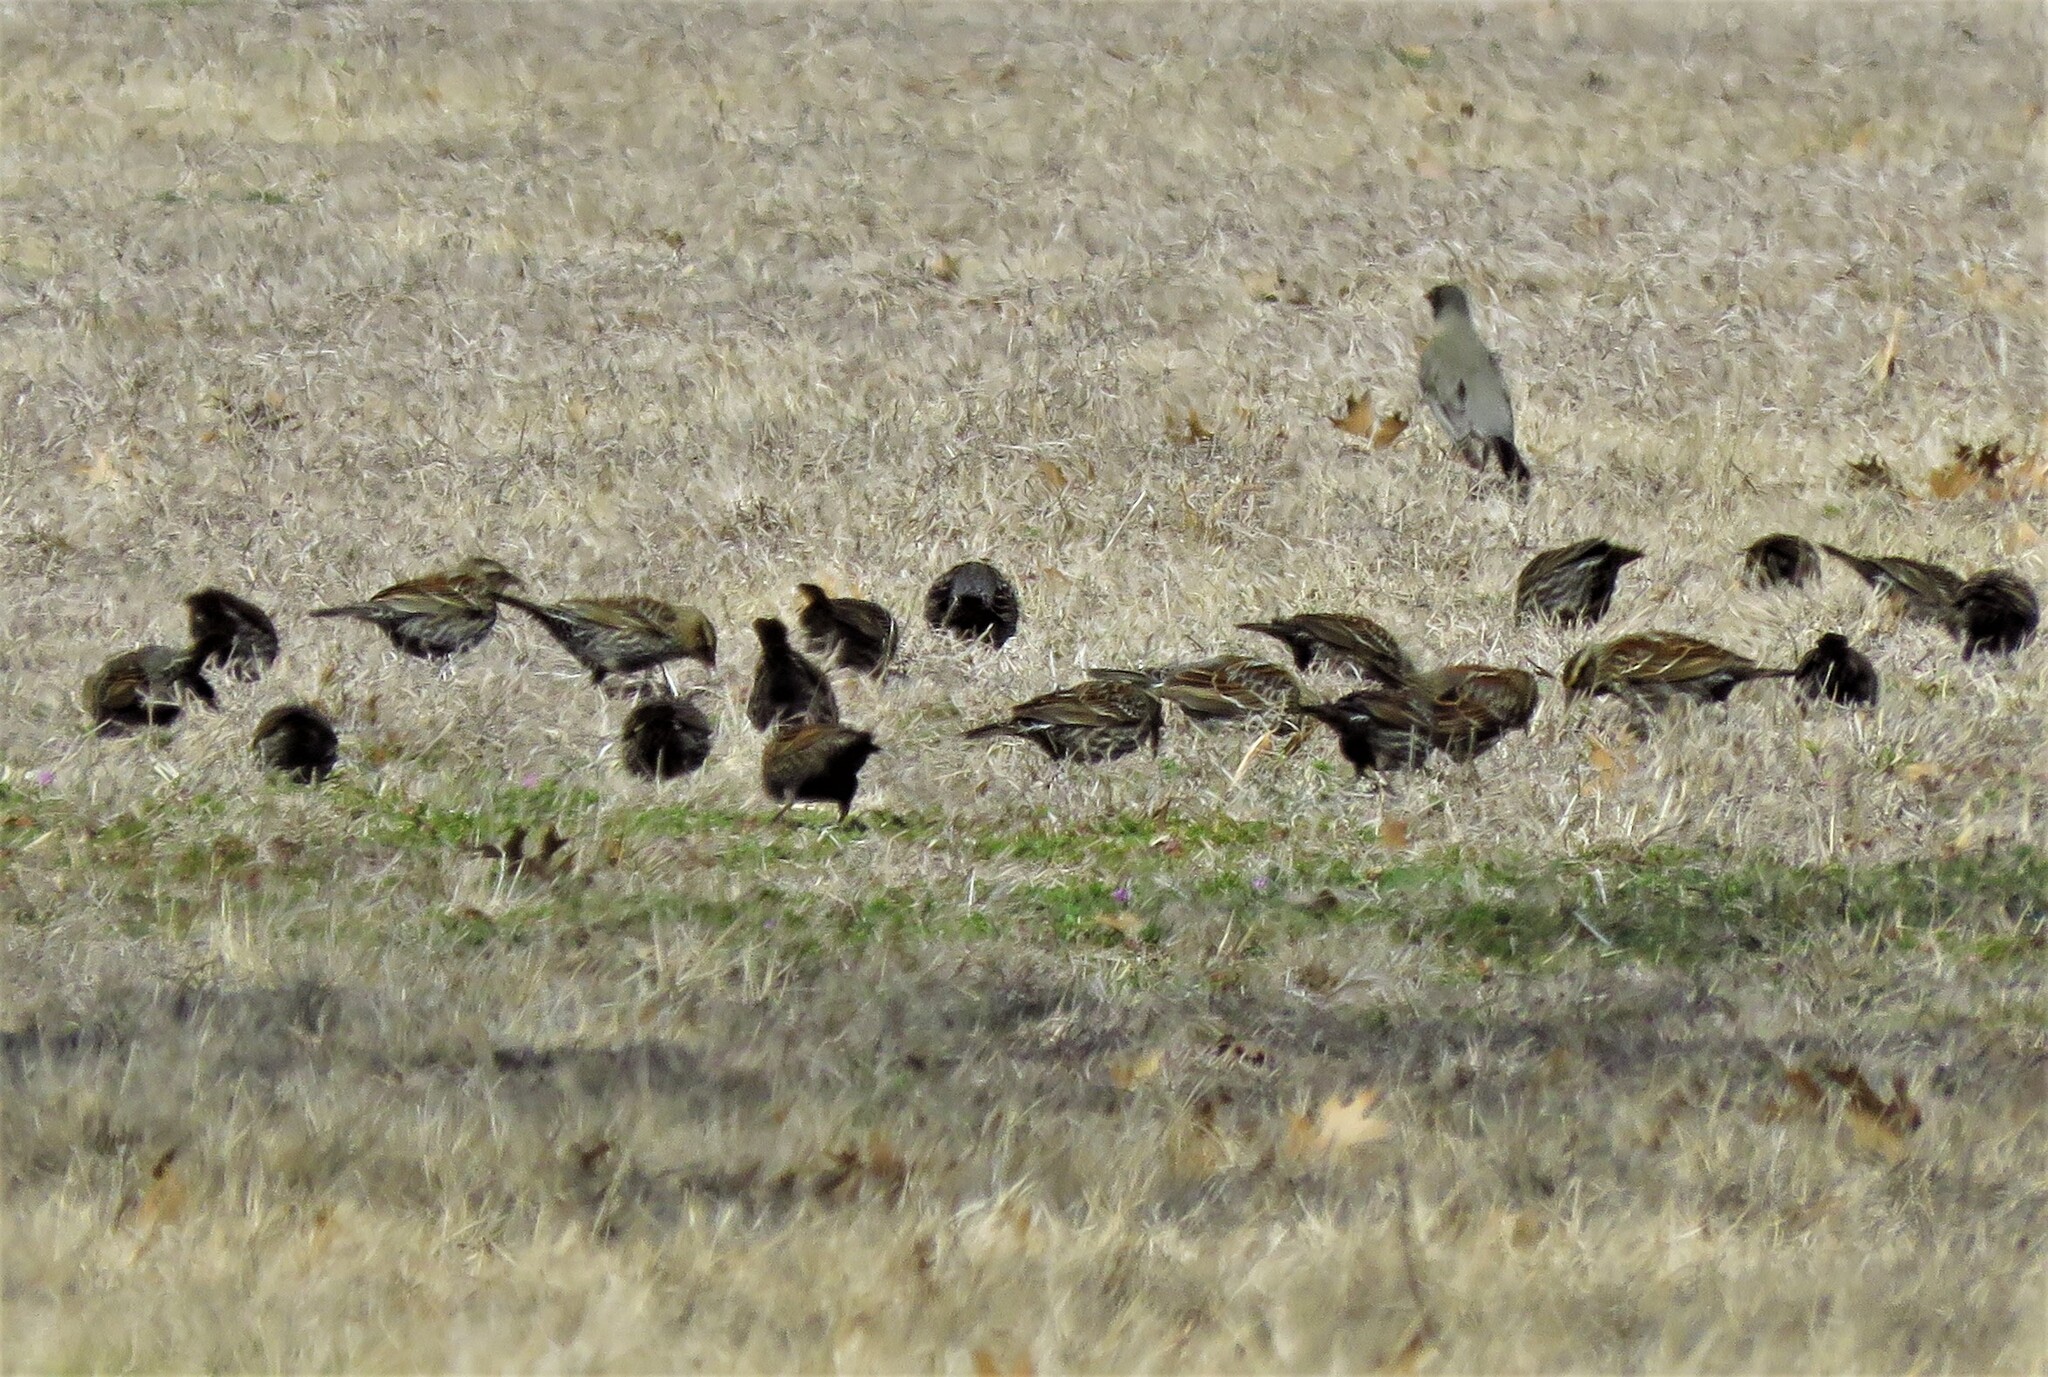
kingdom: Animalia
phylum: Chordata
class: Aves
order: Passeriformes
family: Icteridae
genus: Agelaius
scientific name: Agelaius phoeniceus
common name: Red-winged blackbird
